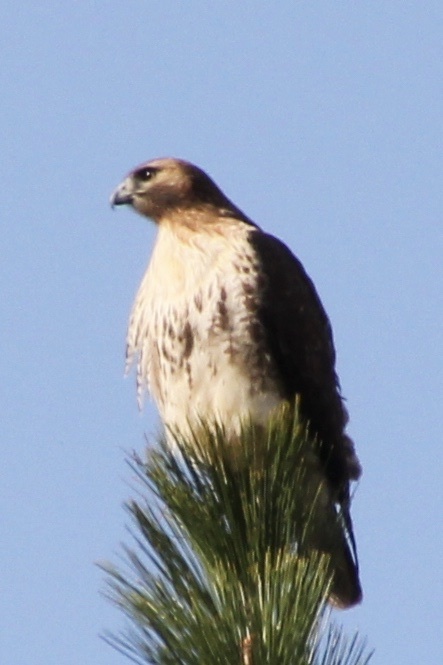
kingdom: Animalia
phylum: Chordata
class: Aves
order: Accipitriformes
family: Accipitridae
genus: Buteo
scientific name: Buteo jamaicensis
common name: Red-tailed hawk
